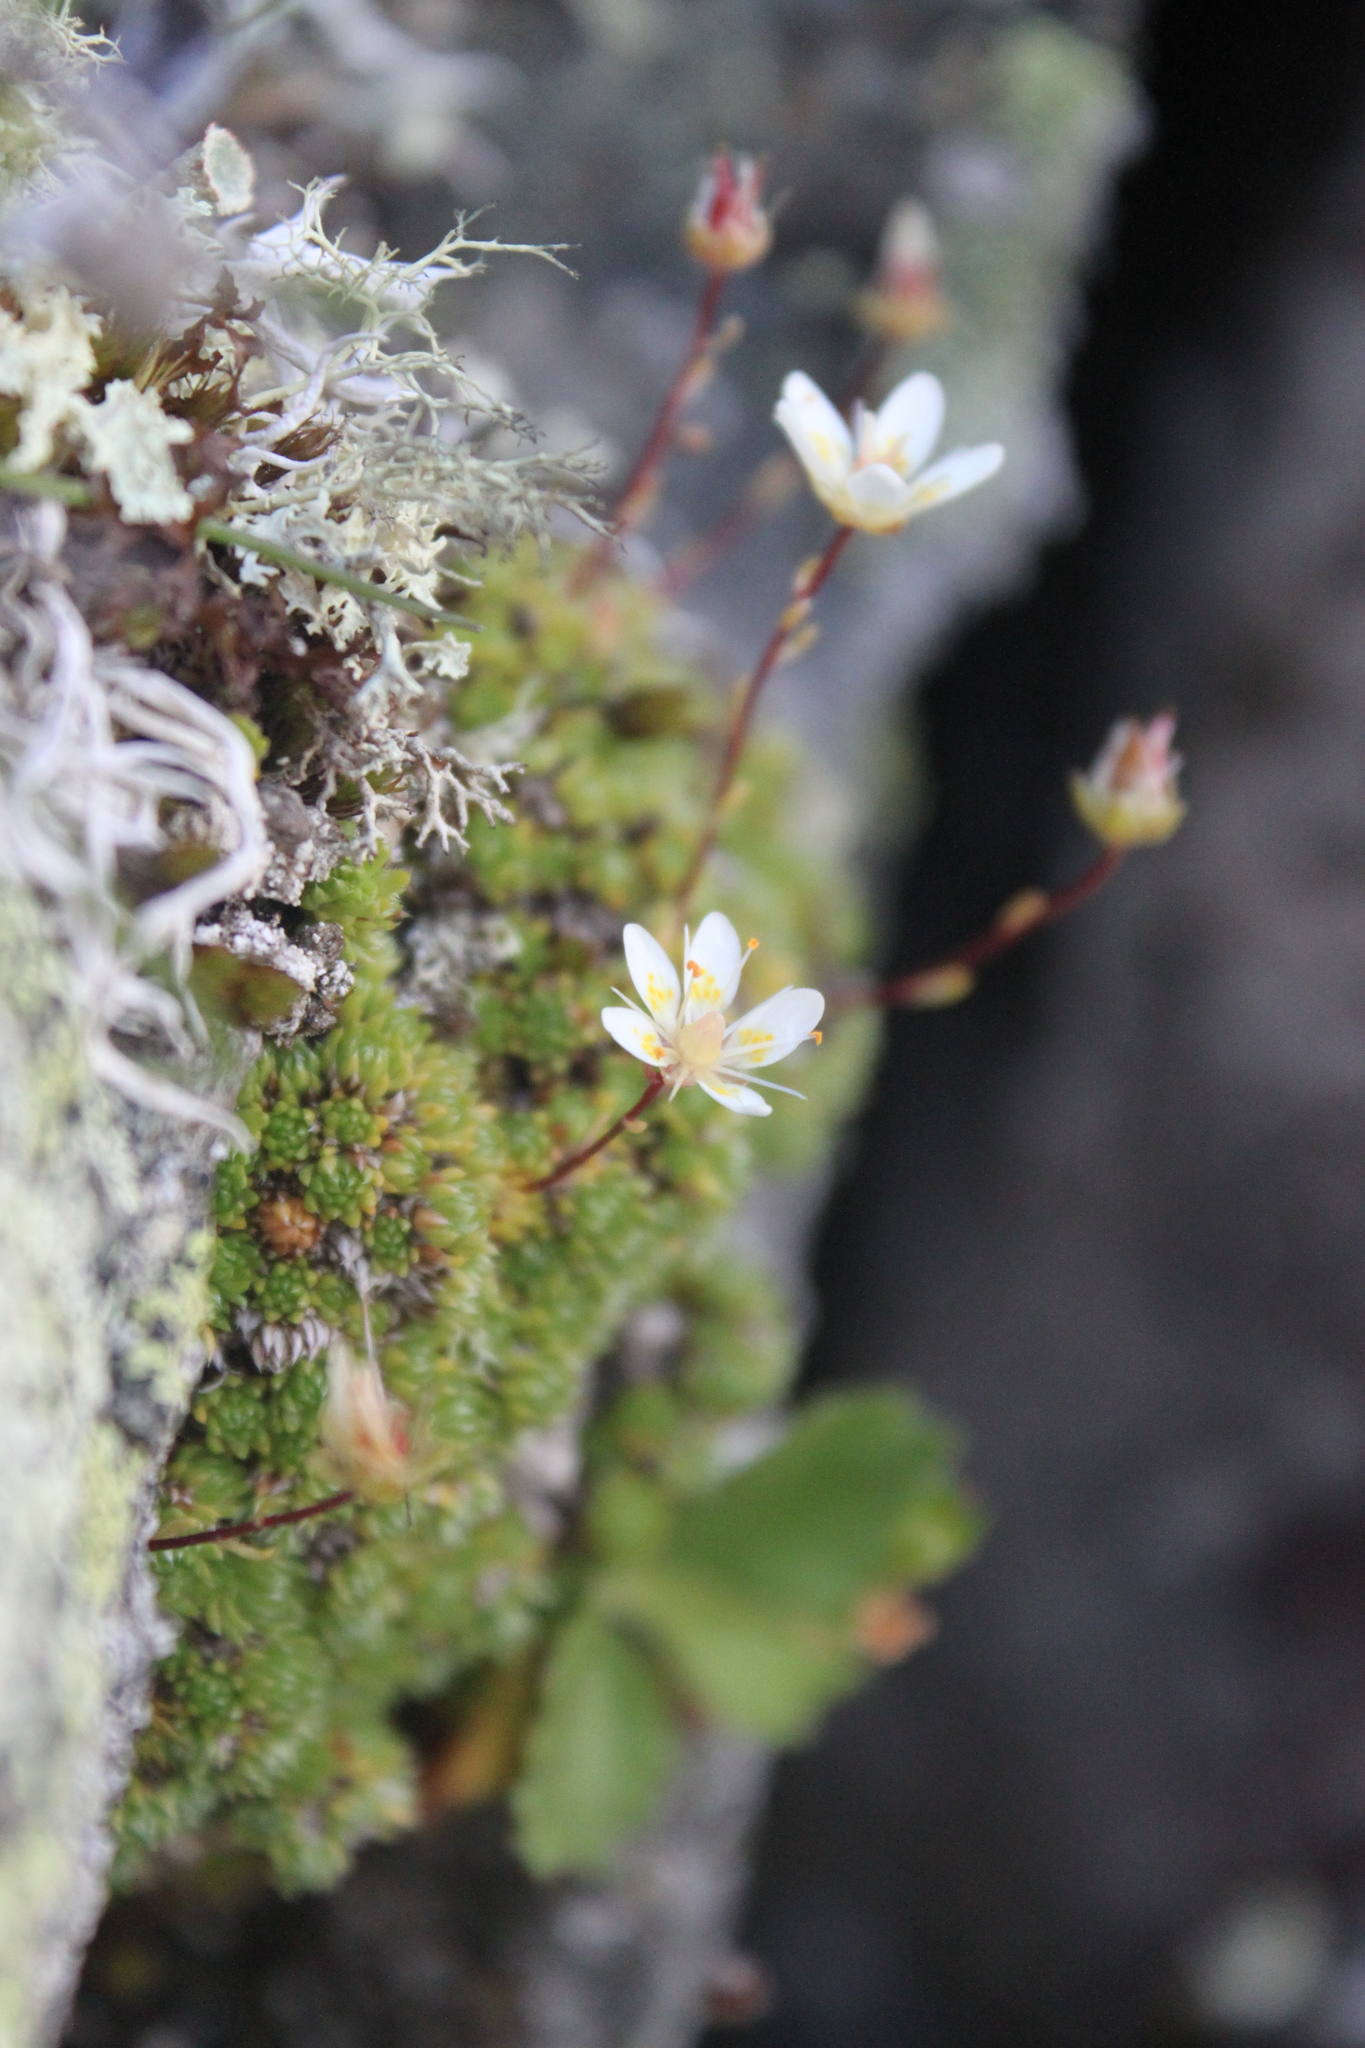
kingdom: Plantae
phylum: Tracheophyta
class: Magnoliopsida
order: Saxifragales
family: Saxifragaceae
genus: Saxifraga
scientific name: Saxifraga bryoides
